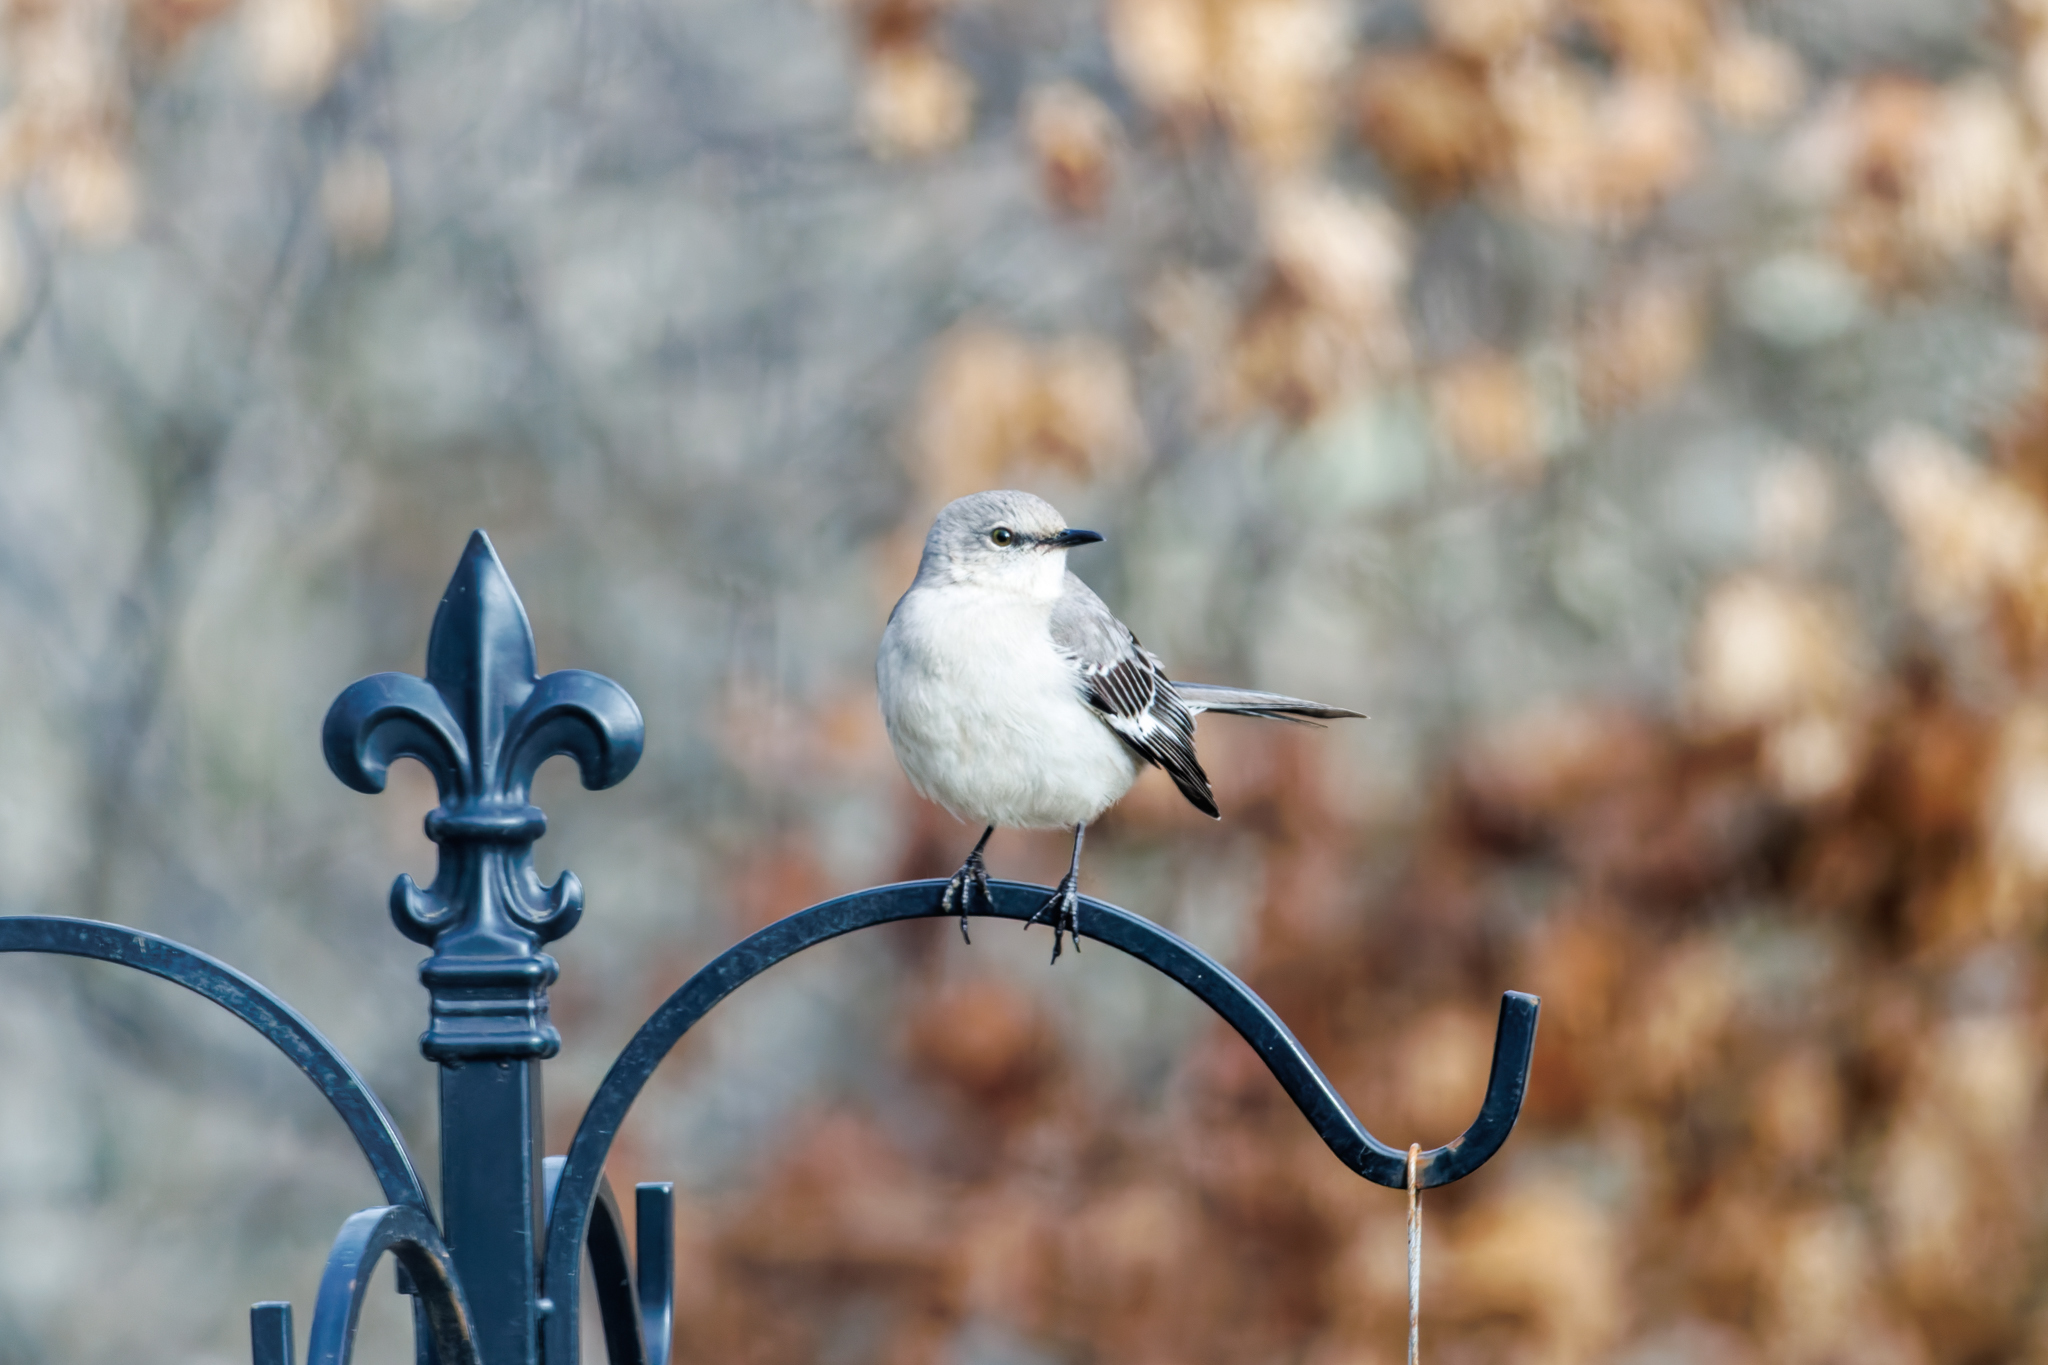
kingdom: Animalia
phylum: Chordata
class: Aves
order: Passeriformes
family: Mimidae
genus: Mimus
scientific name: Mimus polyglottos
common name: Northern mockingbird
